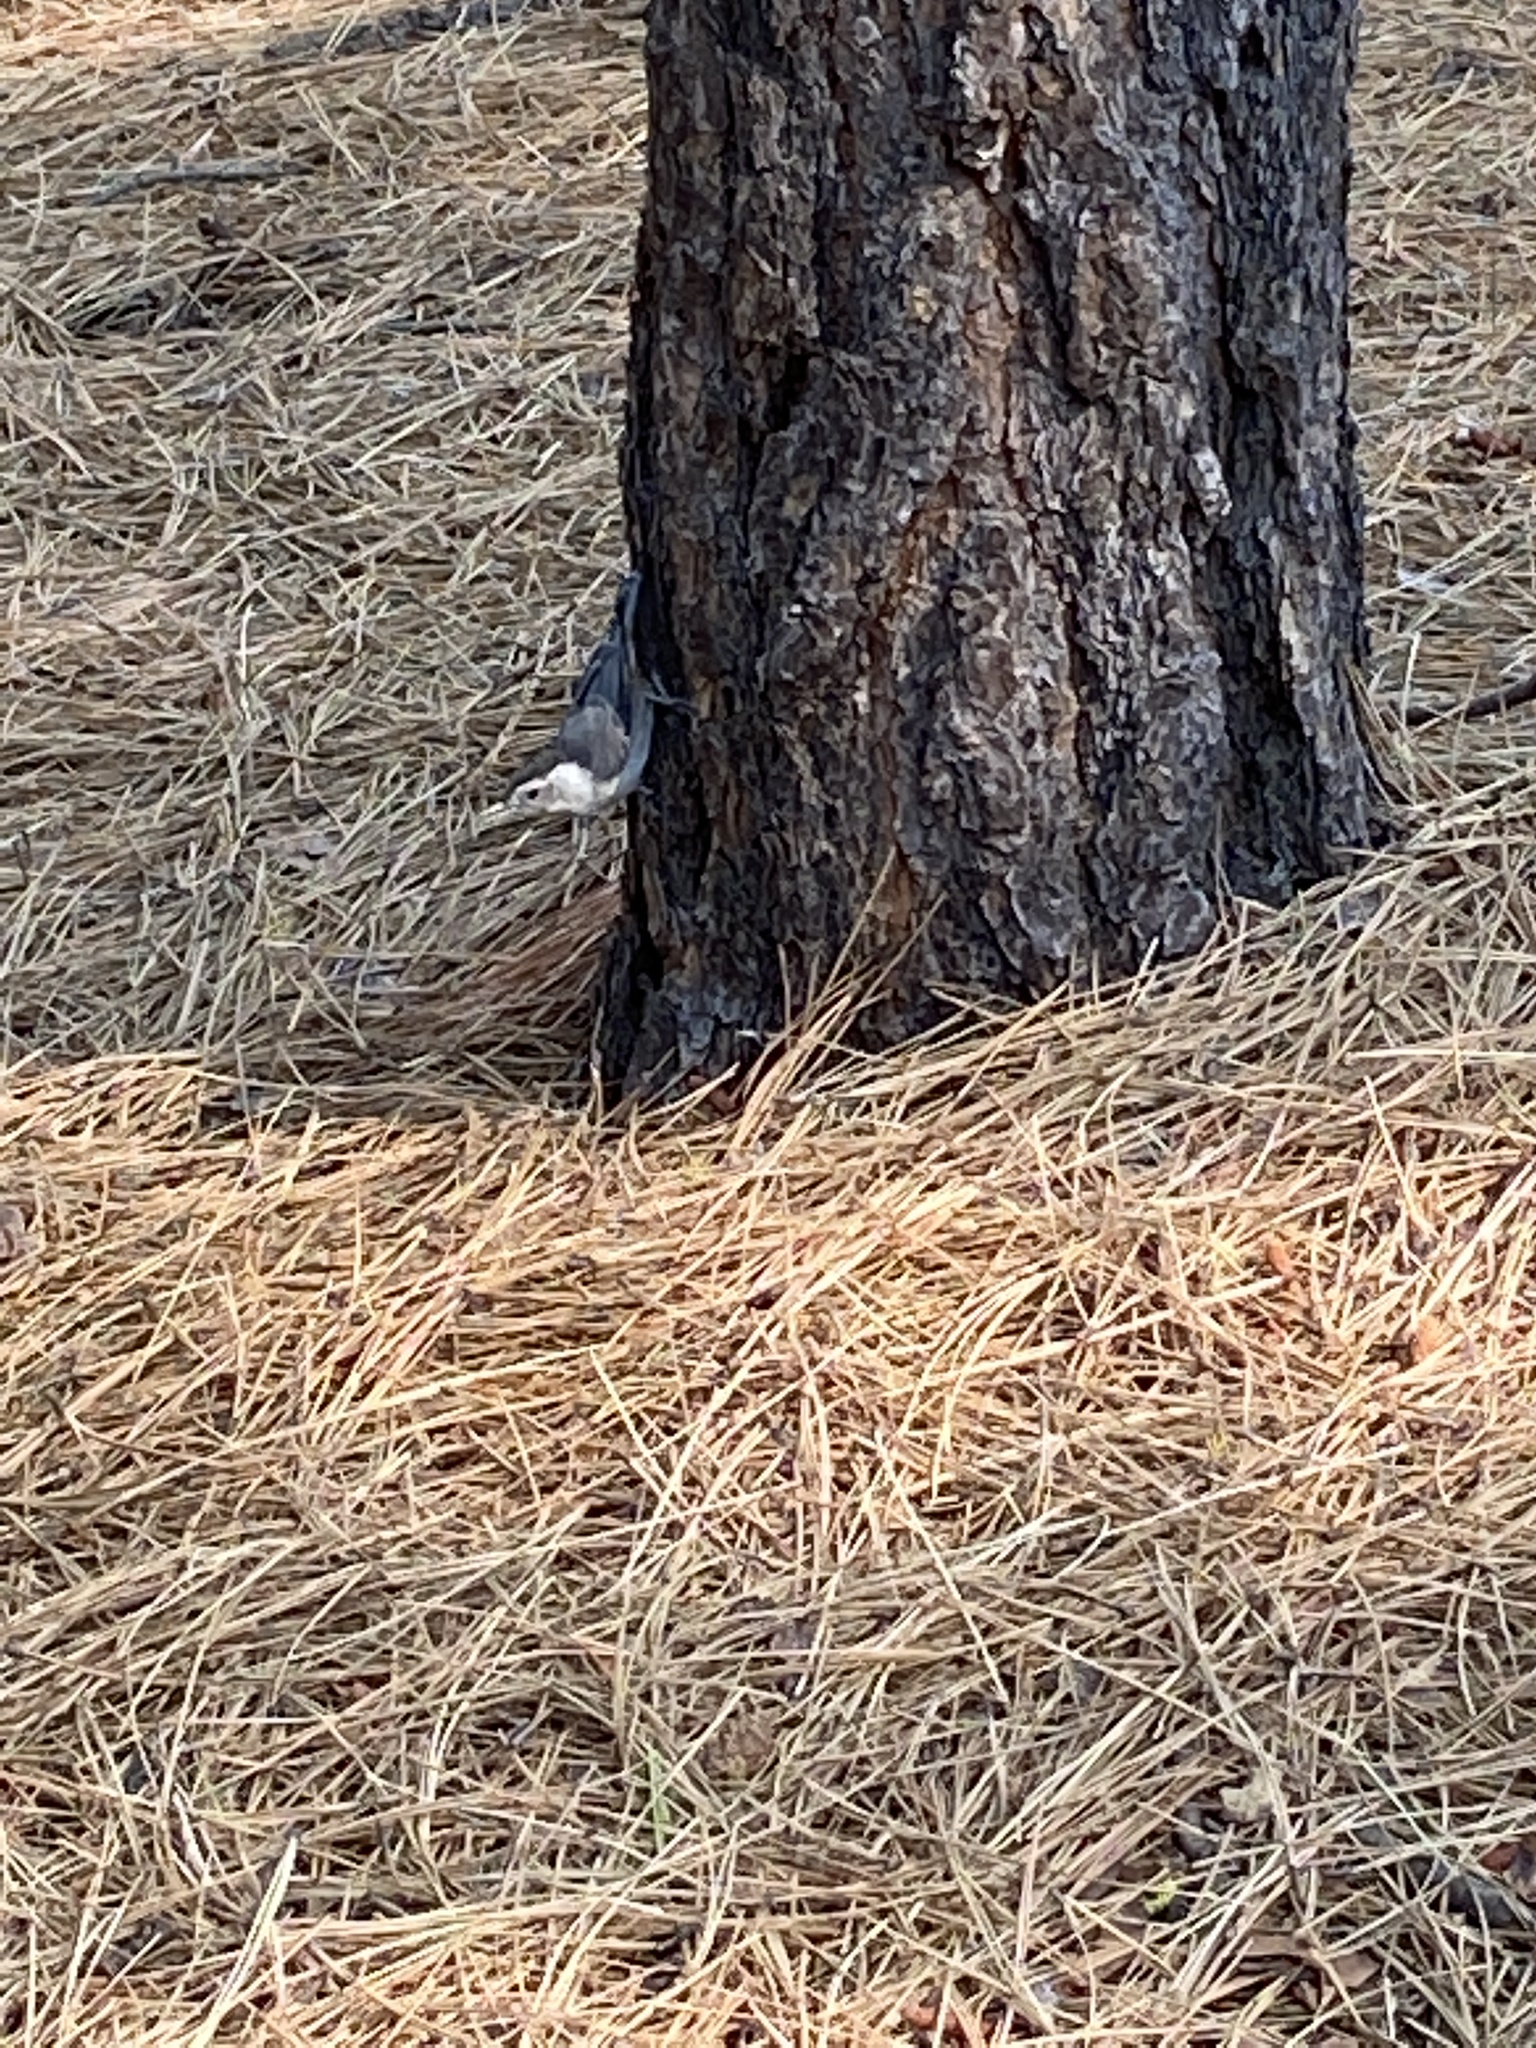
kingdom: Animalia
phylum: Chordata
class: Aves
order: Passeriformes
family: Sittidae
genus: Sitta
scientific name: Sitta carolinensis
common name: White-breasted nuthatch
